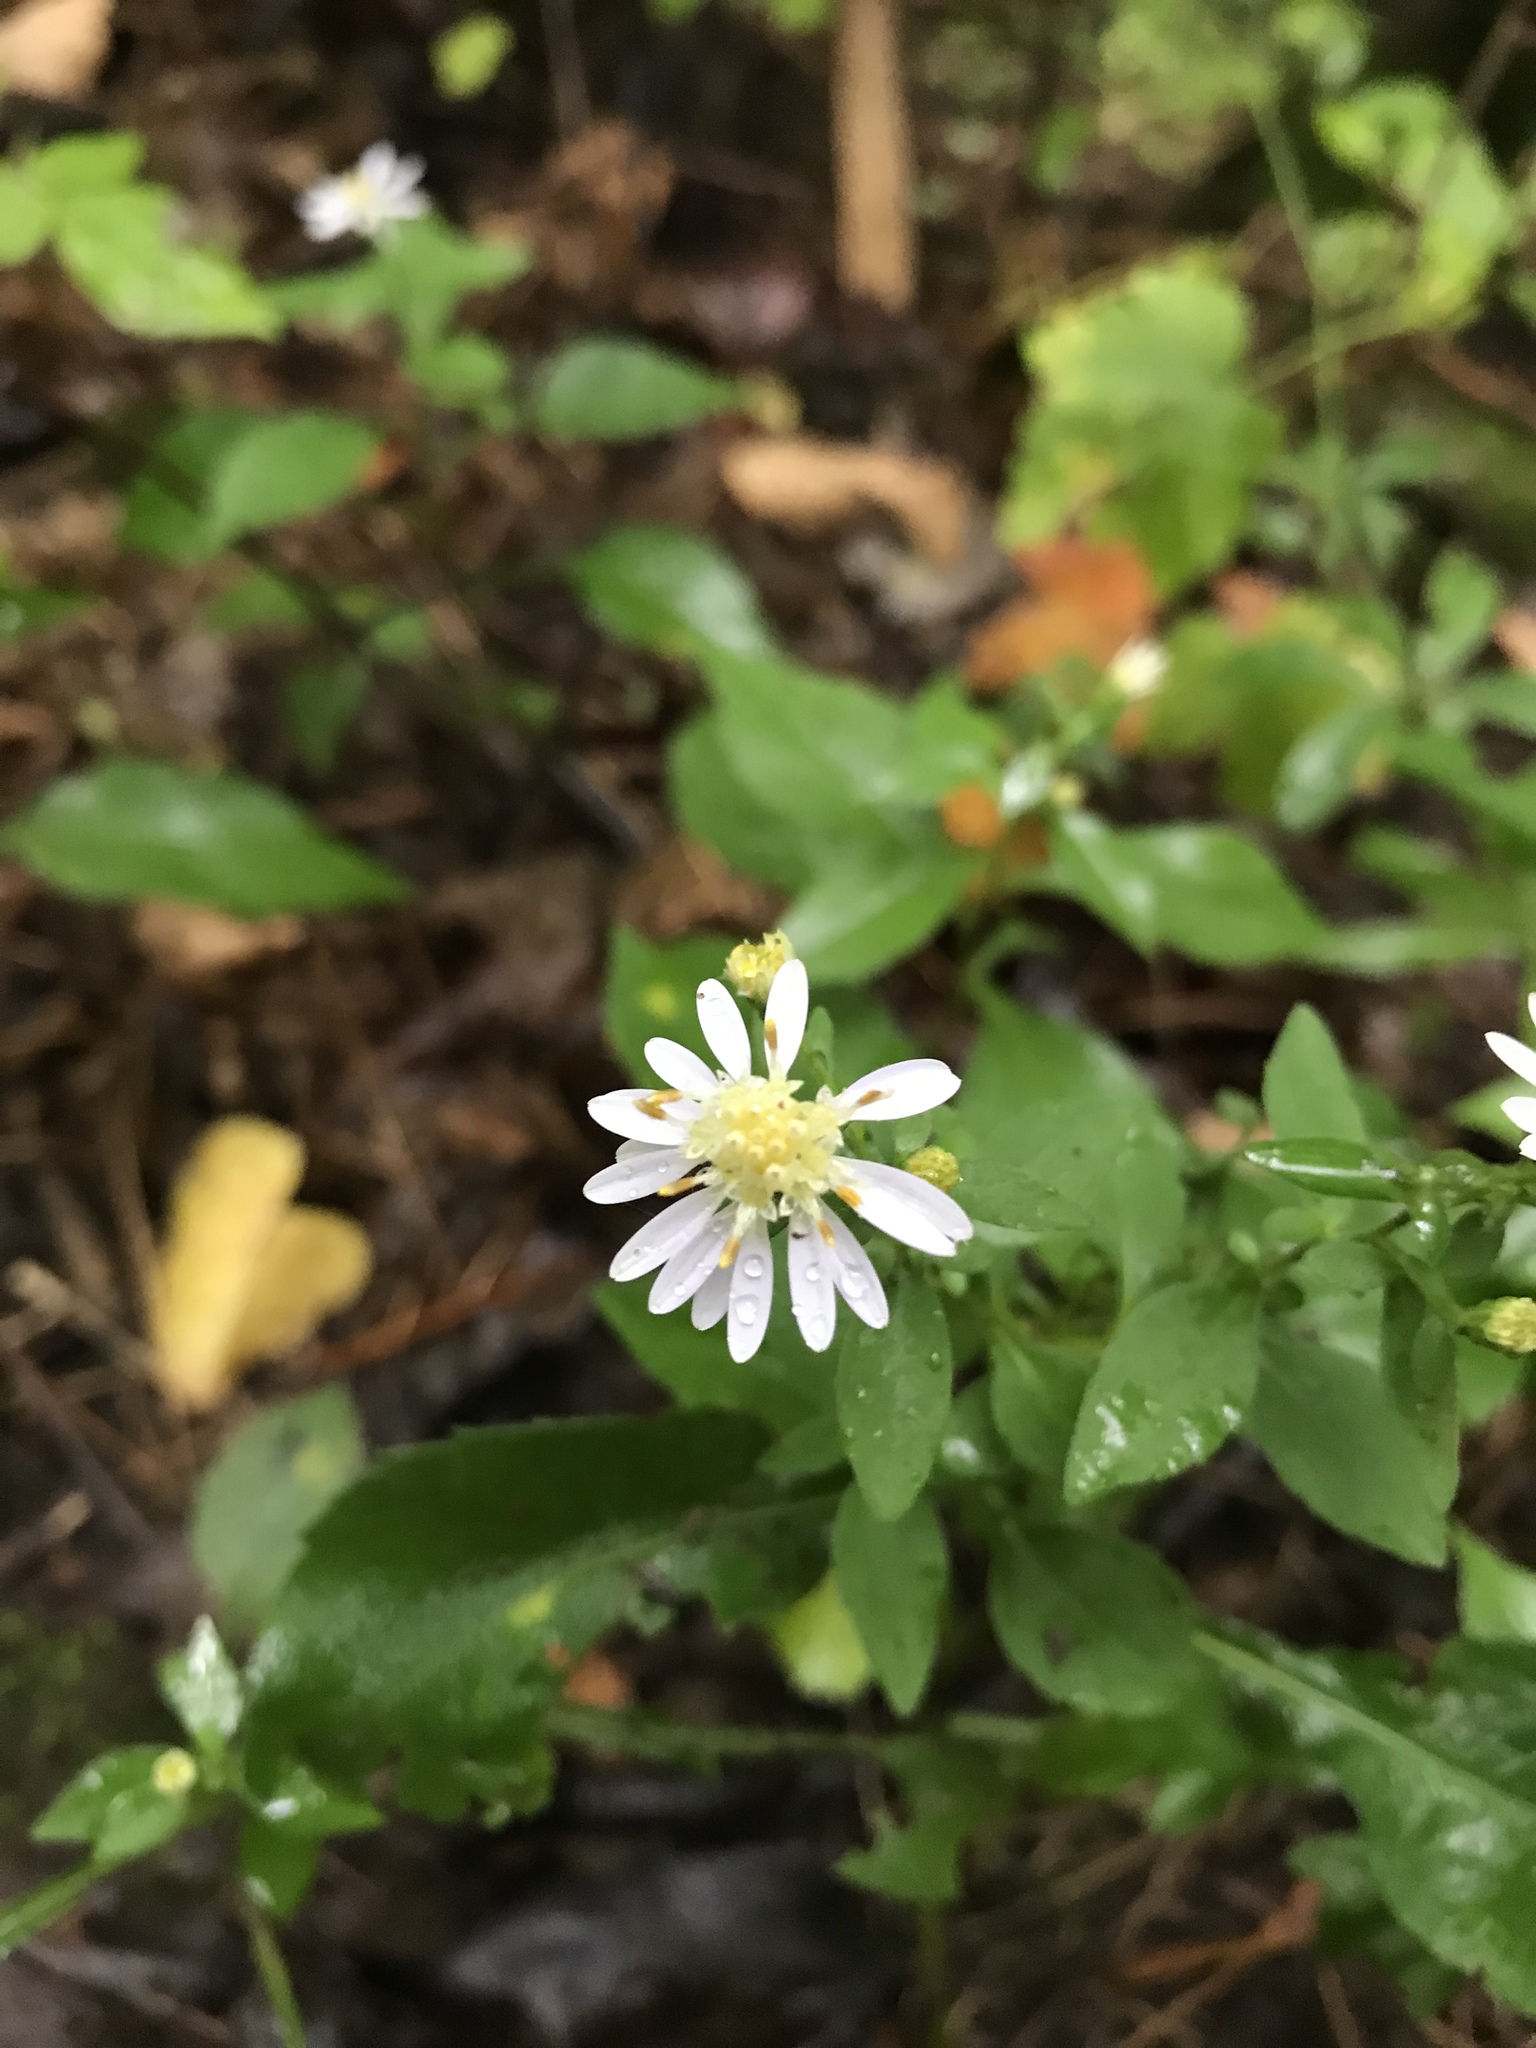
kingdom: Plantae
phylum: Tracheophyta
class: Magnoliopsida
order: Asterales
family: Asteraceae
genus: Symphyotrichum
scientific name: Symphyotrichum lateriflorum
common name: Calico aster
